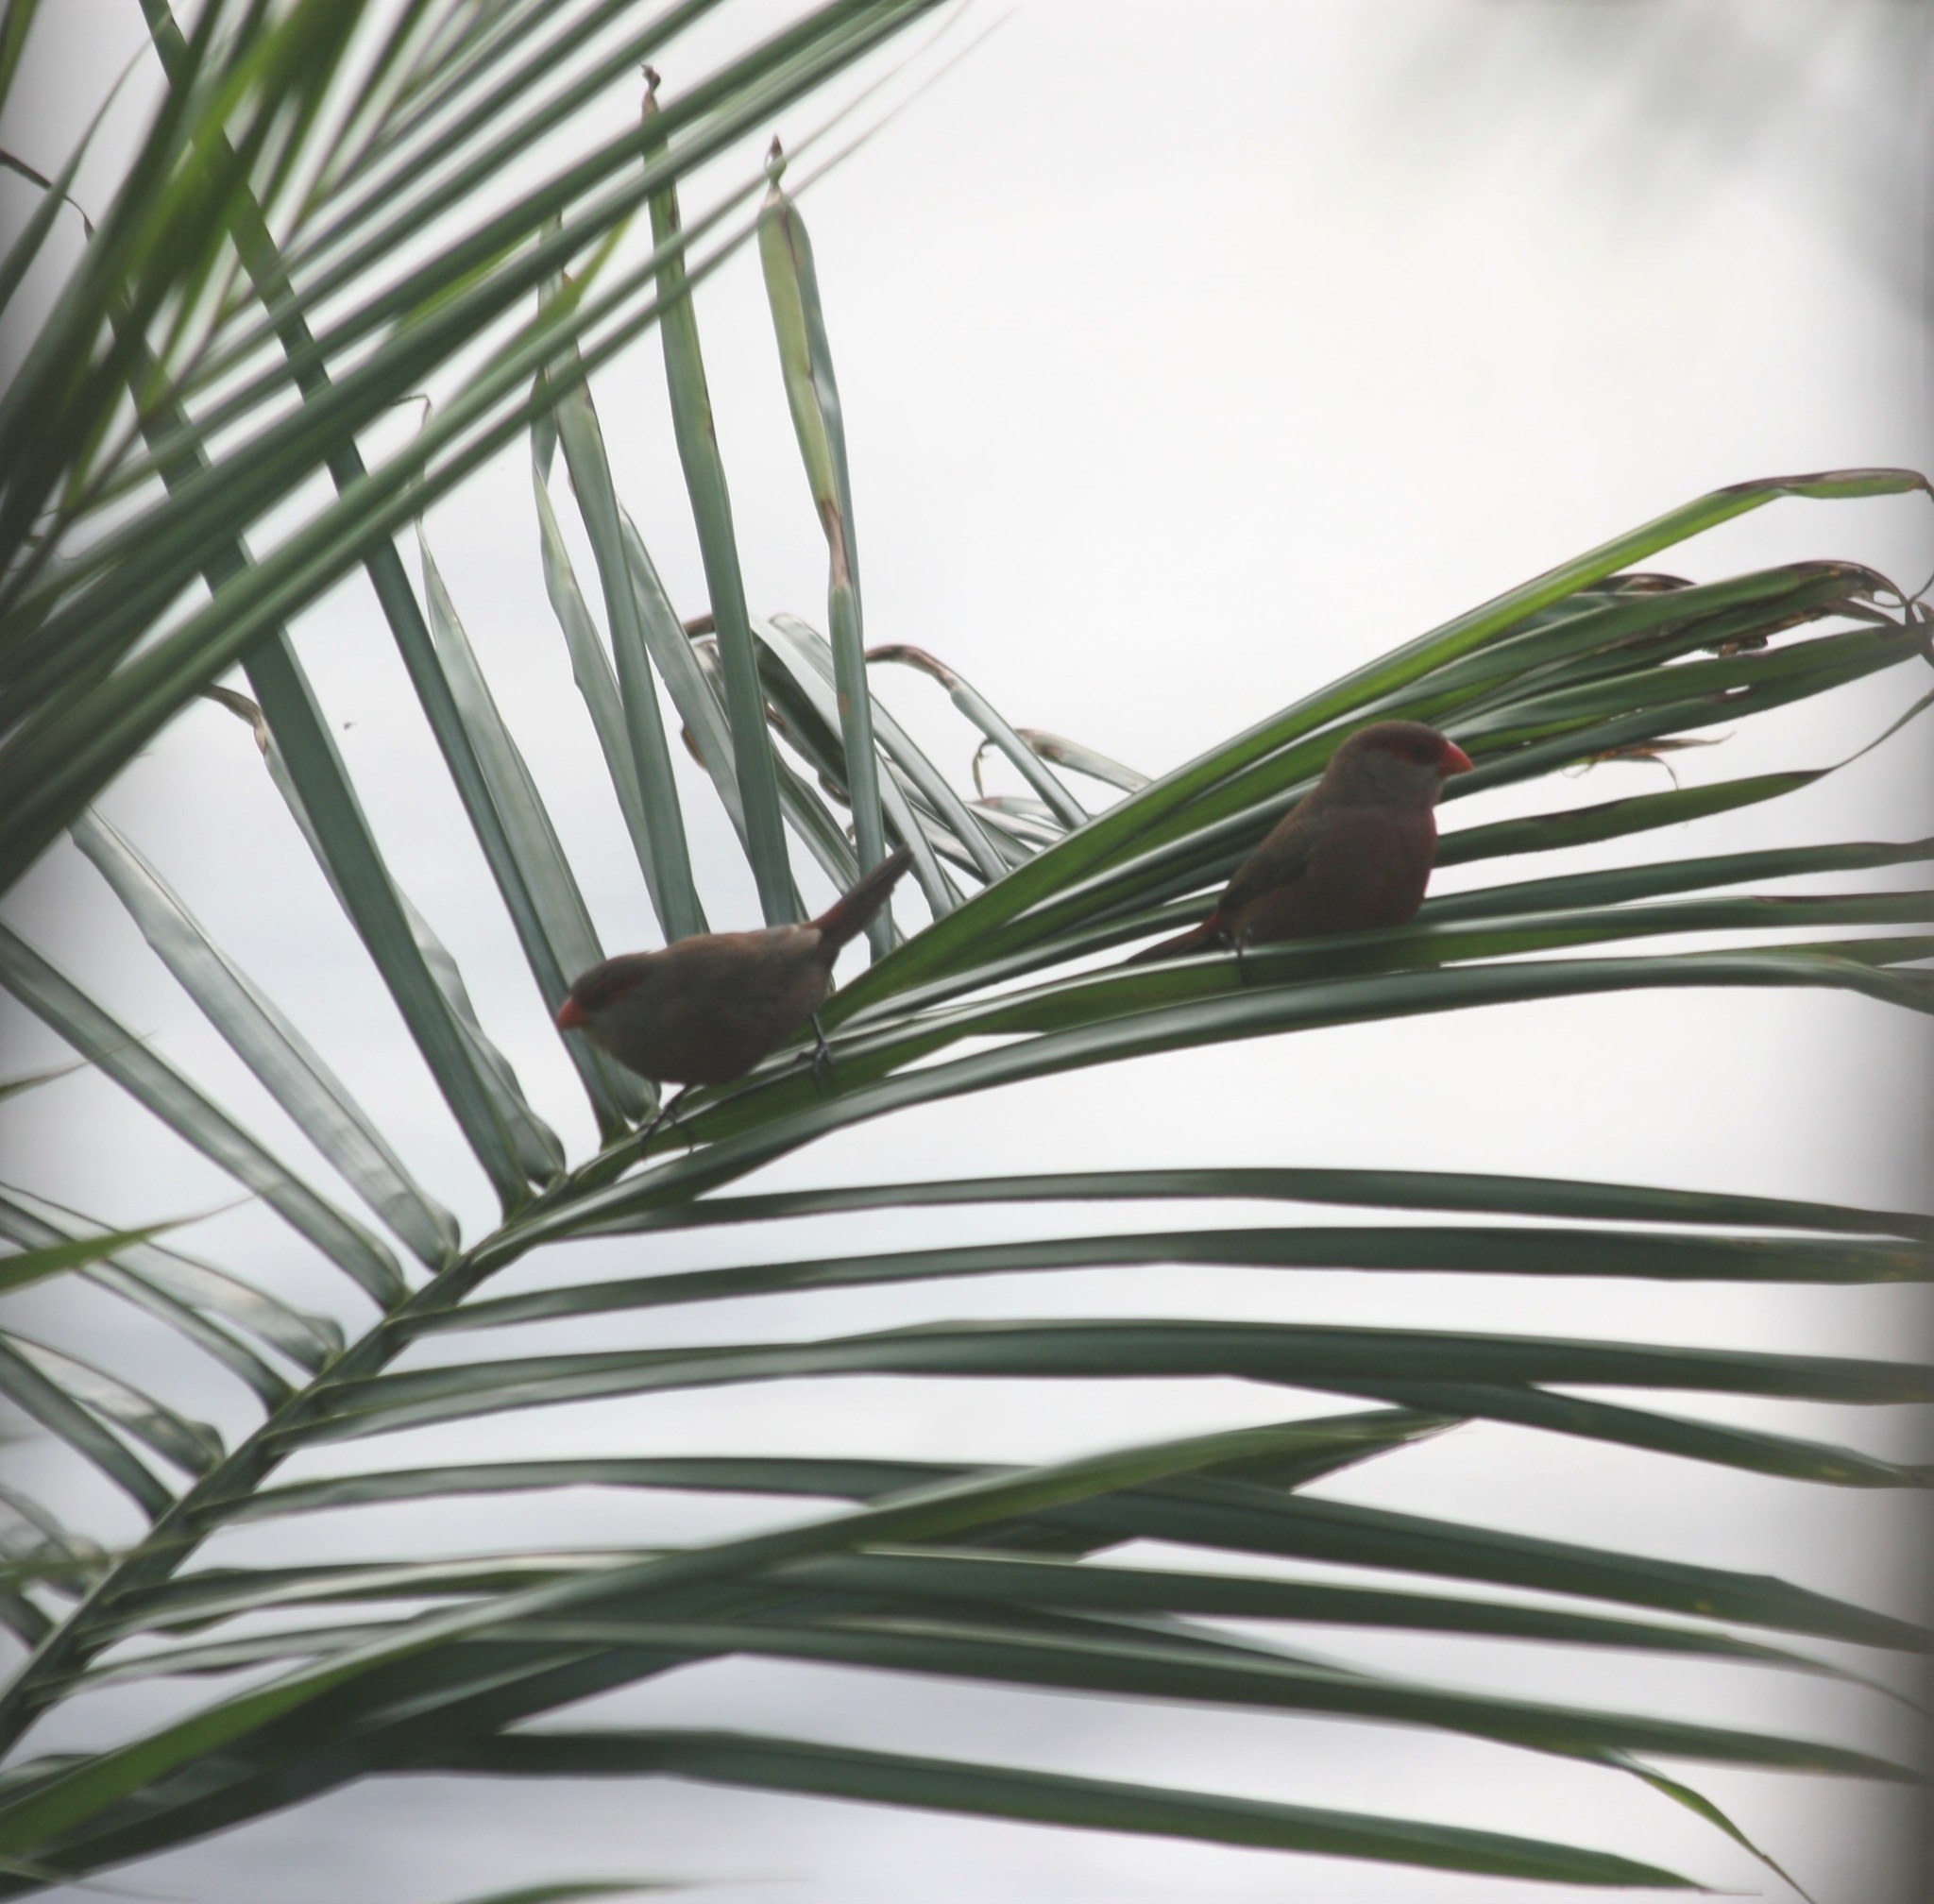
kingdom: Animalia
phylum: Chordata
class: Aves
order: Passeriformes
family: Estrildidae
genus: Estrilda
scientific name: Estrilda astrild
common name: Common waxbill
